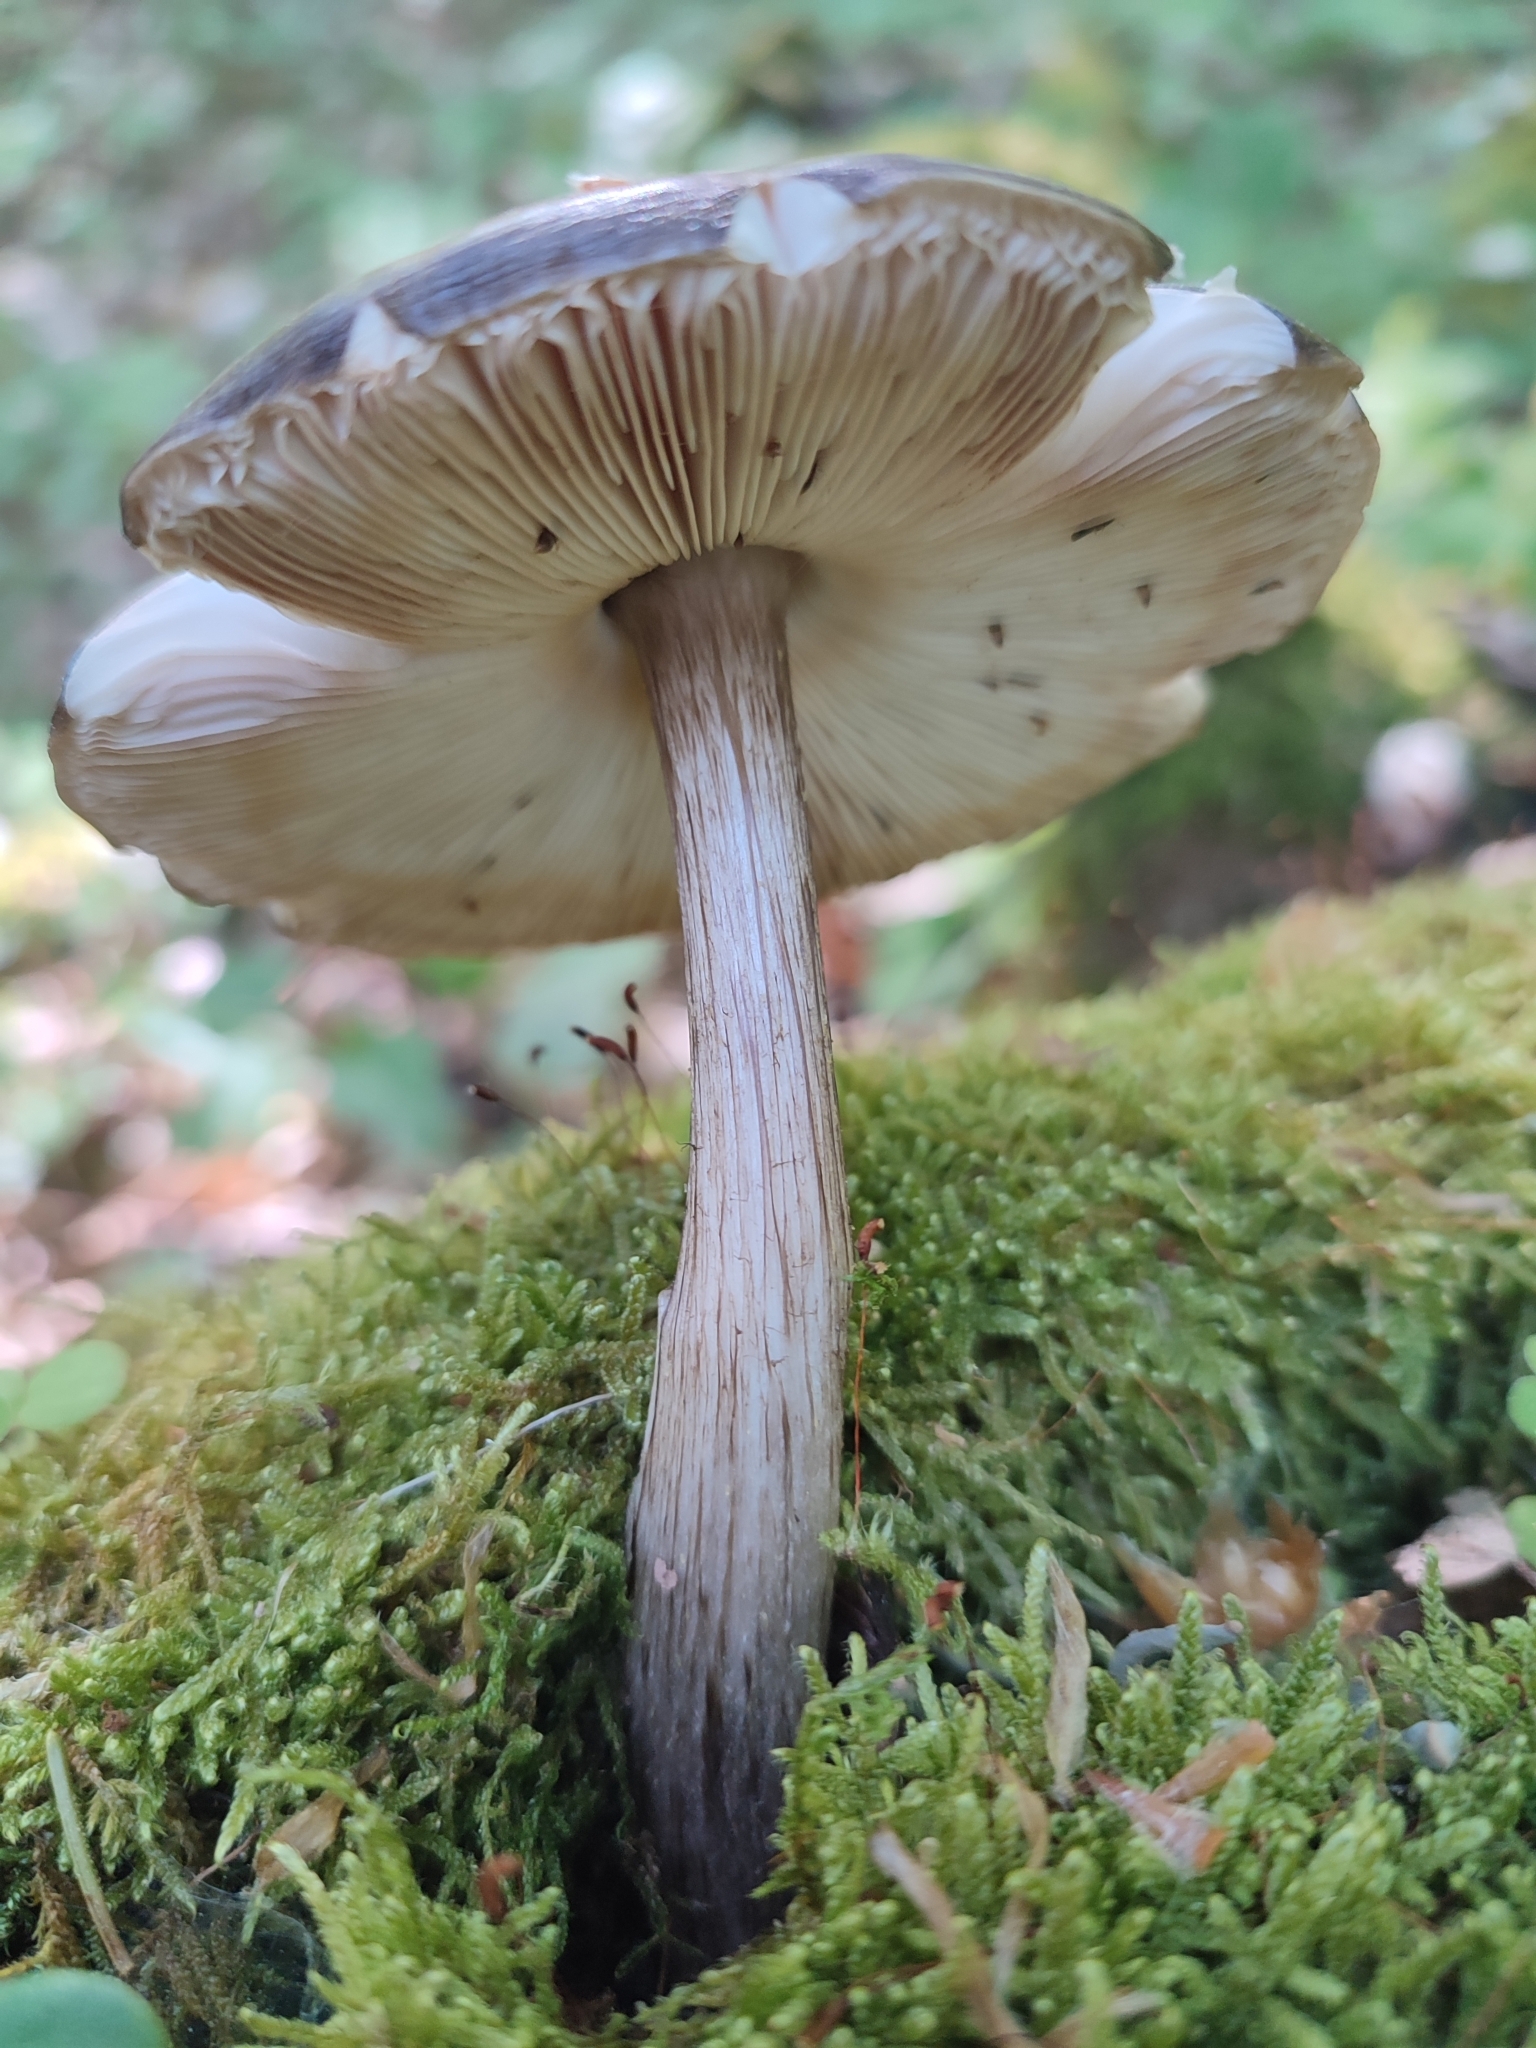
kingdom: Fungi
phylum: Basidiomycota
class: Agaricomycetes
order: Agaricales
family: Pluteaceae
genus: Pluteus
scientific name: Pluteus cervinus
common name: Deer shield
